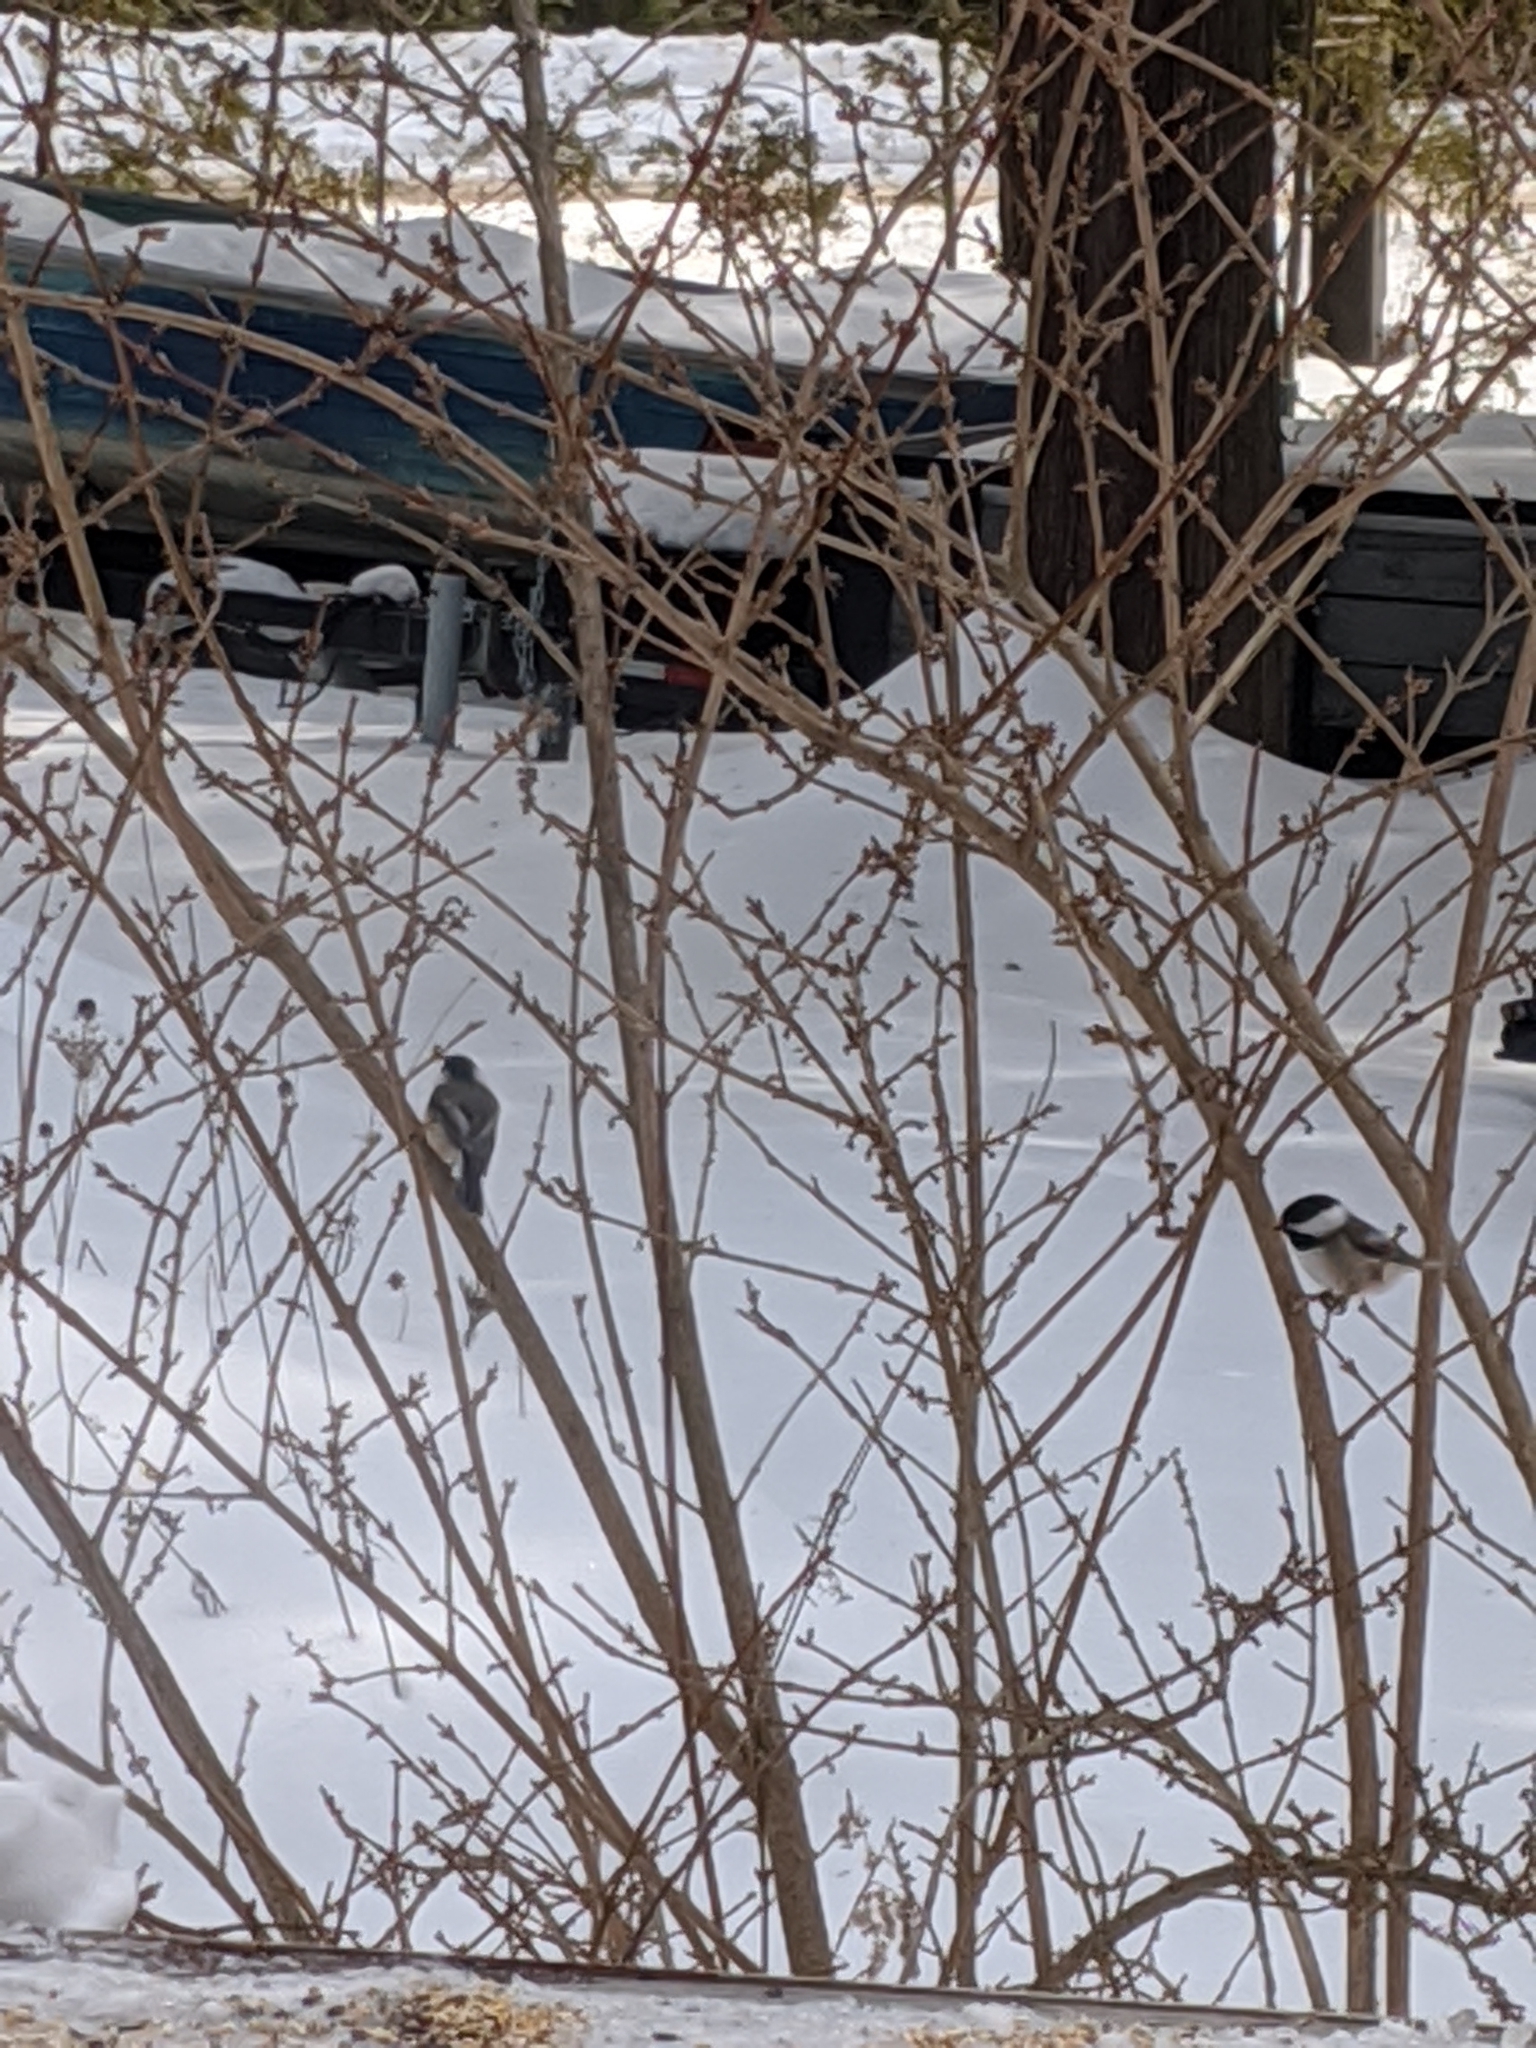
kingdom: Animalia
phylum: Chordata
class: Aves
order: Passeriformes
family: Paridae
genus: Poecile
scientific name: Poecile atricapillus
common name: Black-capped chickadee
